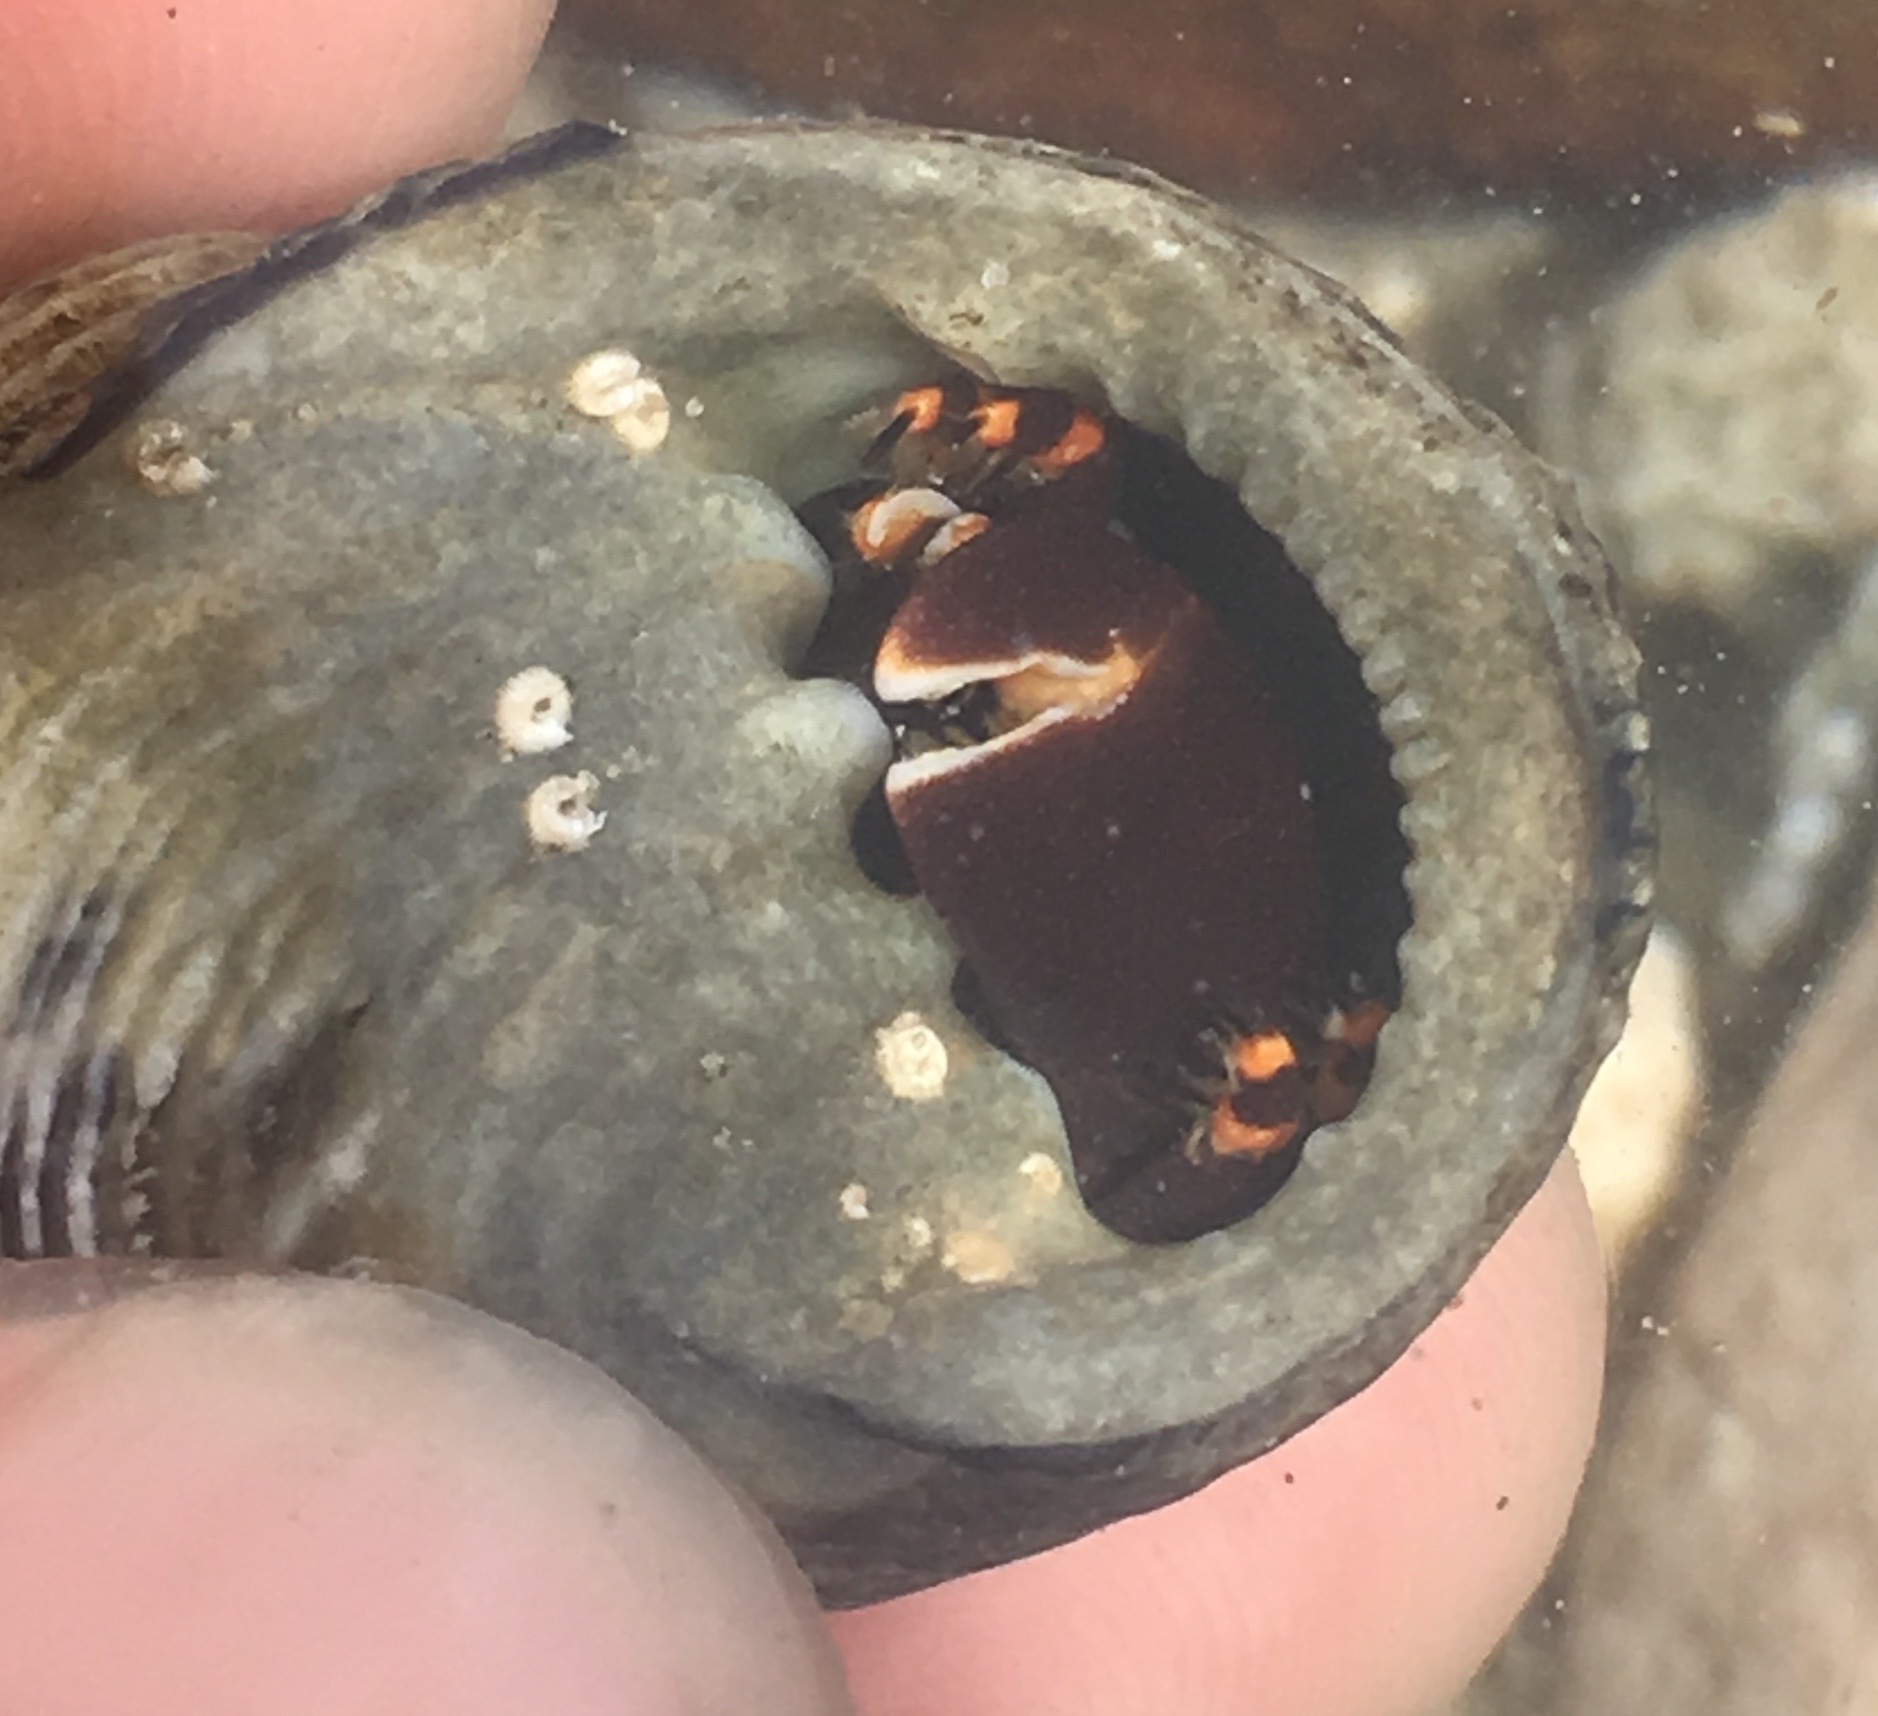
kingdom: Animalia
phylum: Arthropoda
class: Malacostraca
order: Decapoda
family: Diogenidae
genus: Calcinus
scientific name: Calcinus explorator
